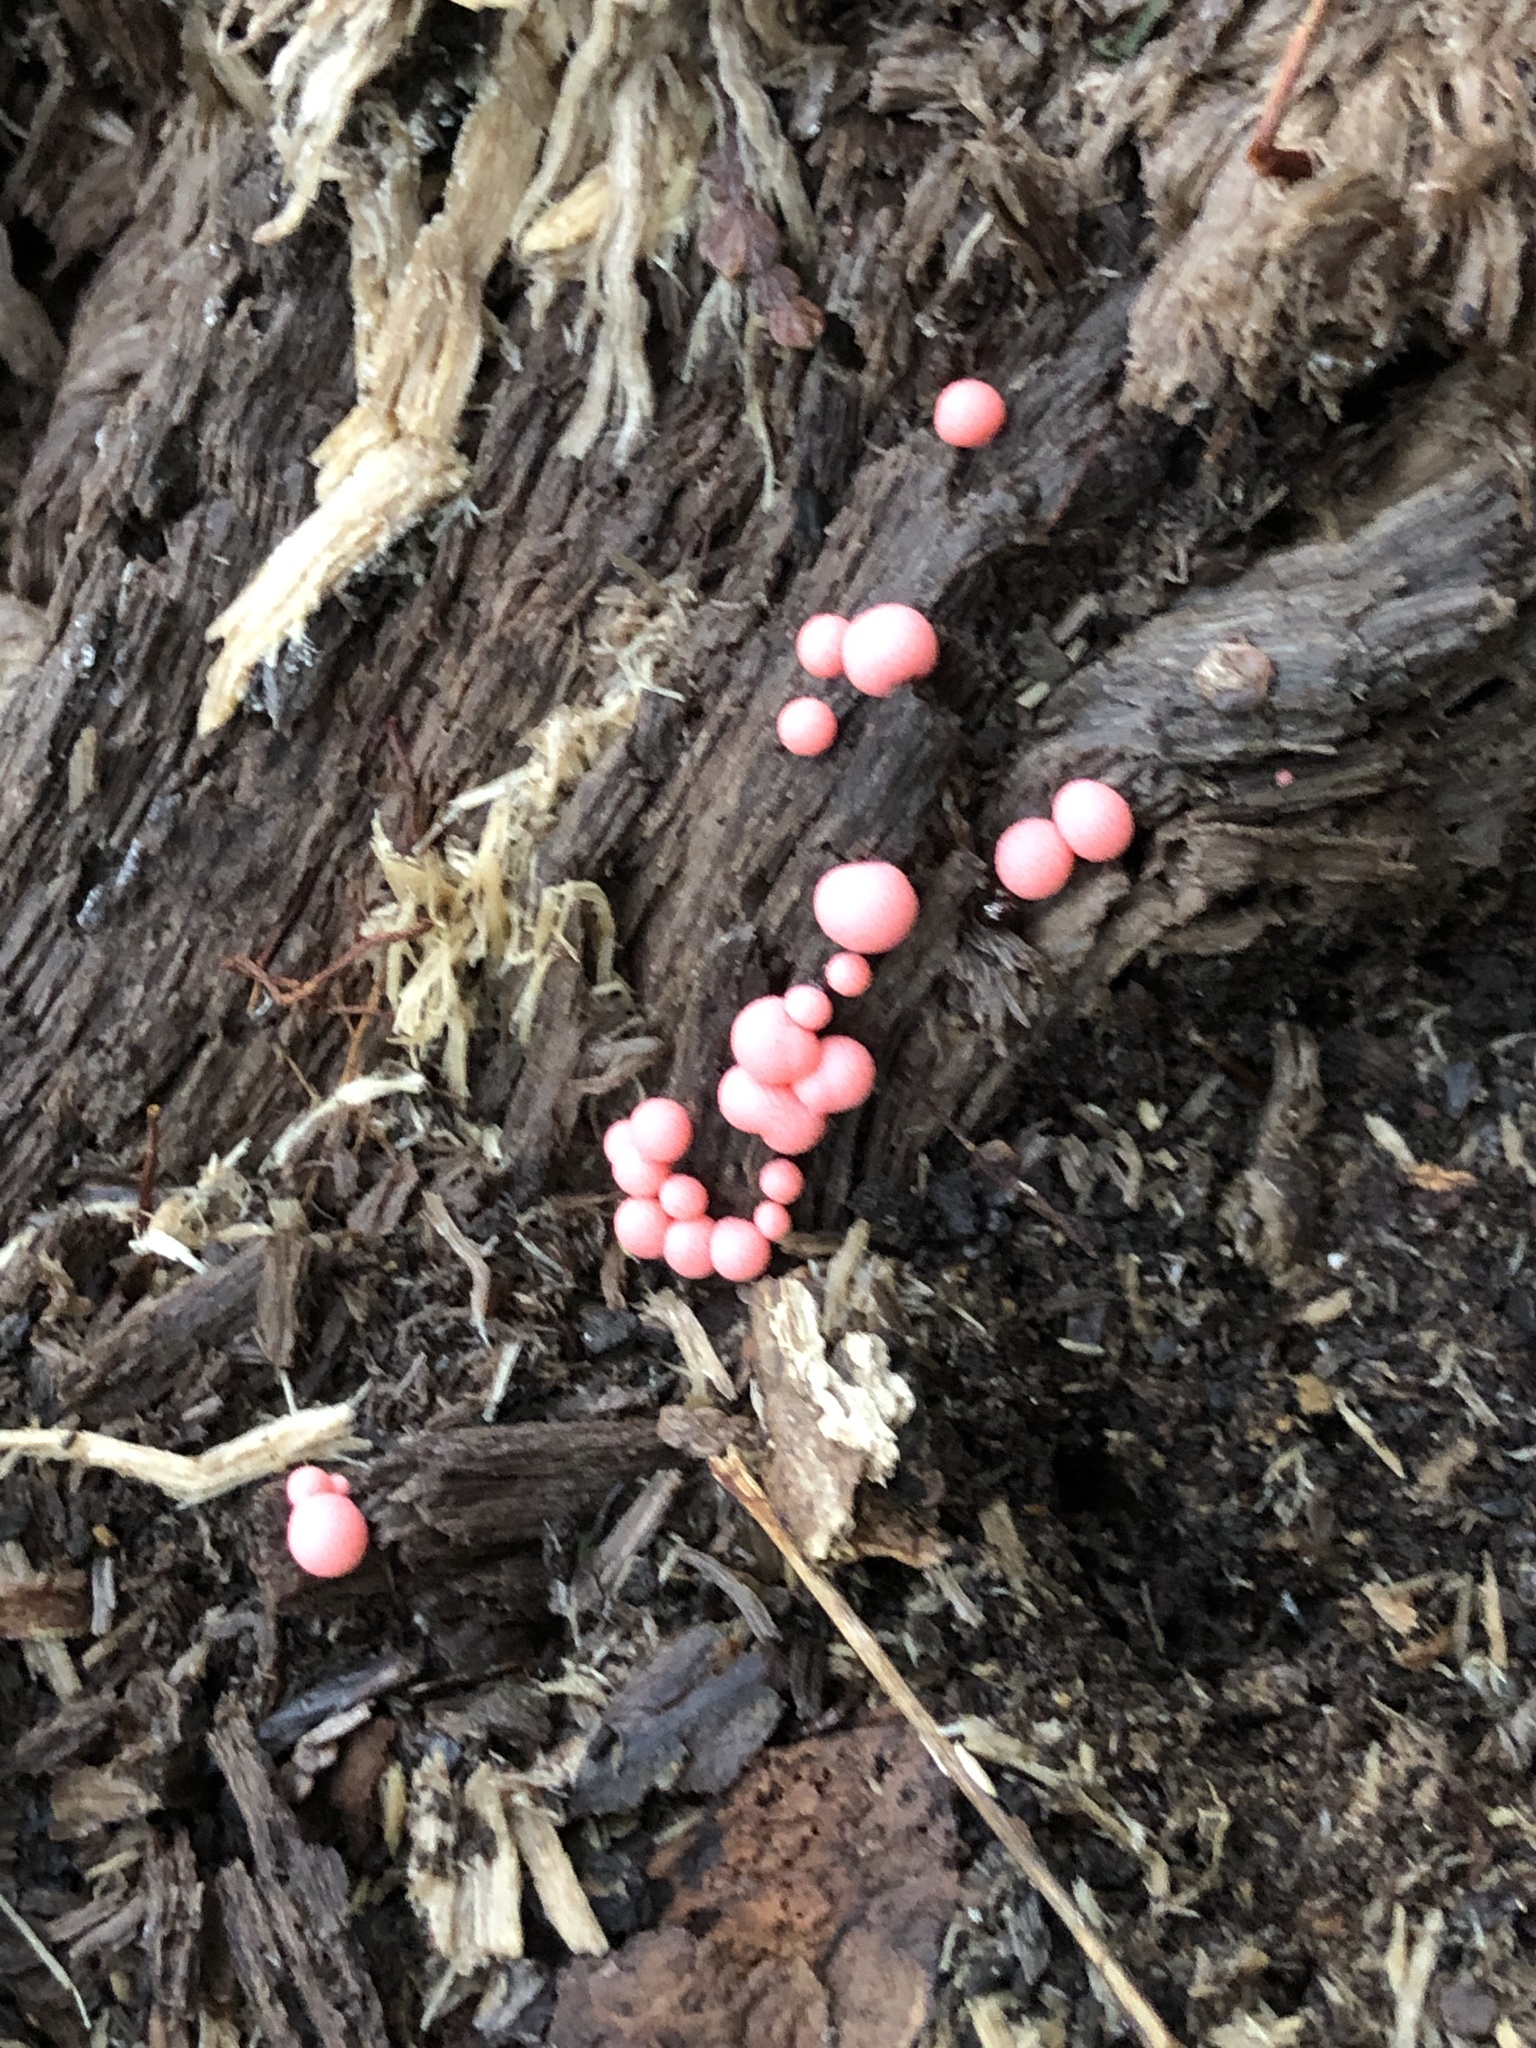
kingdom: Protozoa
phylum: Mycetozoa
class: Myxomycetes
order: Cribrariales
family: Tubiferaceae
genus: Lycogala
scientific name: Lycogala epidendrum
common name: Wolf's milk
